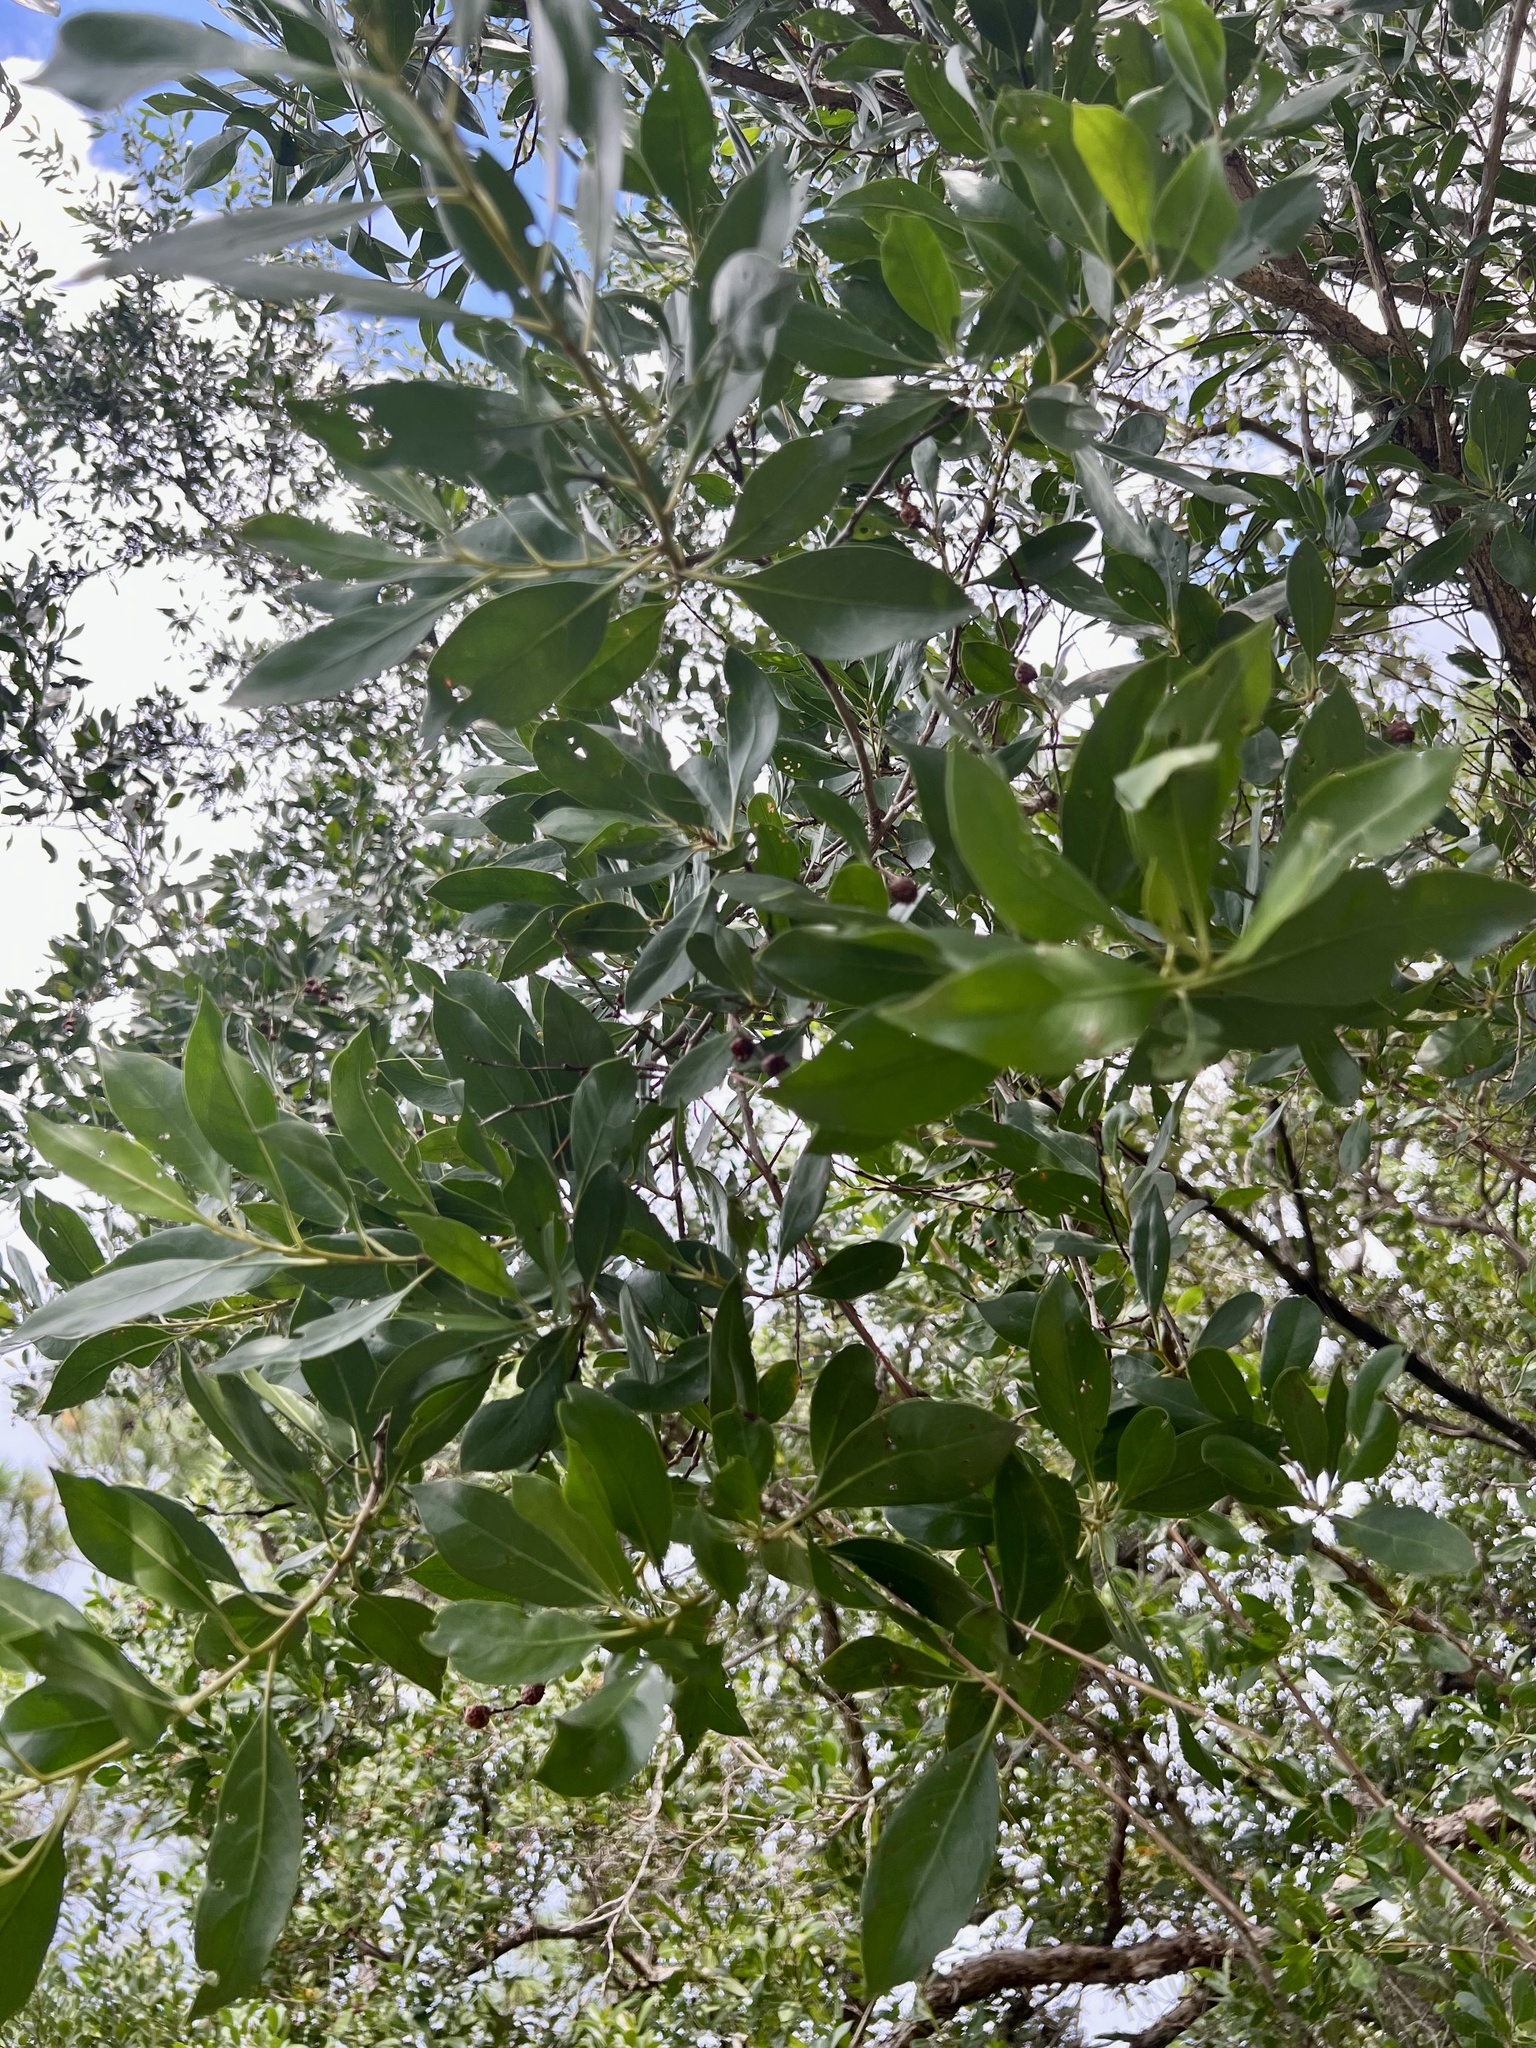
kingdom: Plantae
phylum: Tracheophyta
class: Magnoliopsida
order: Myrtales
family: Combretaceae
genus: Conocarpus
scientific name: Conocarpus erectus
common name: Button mangrove
